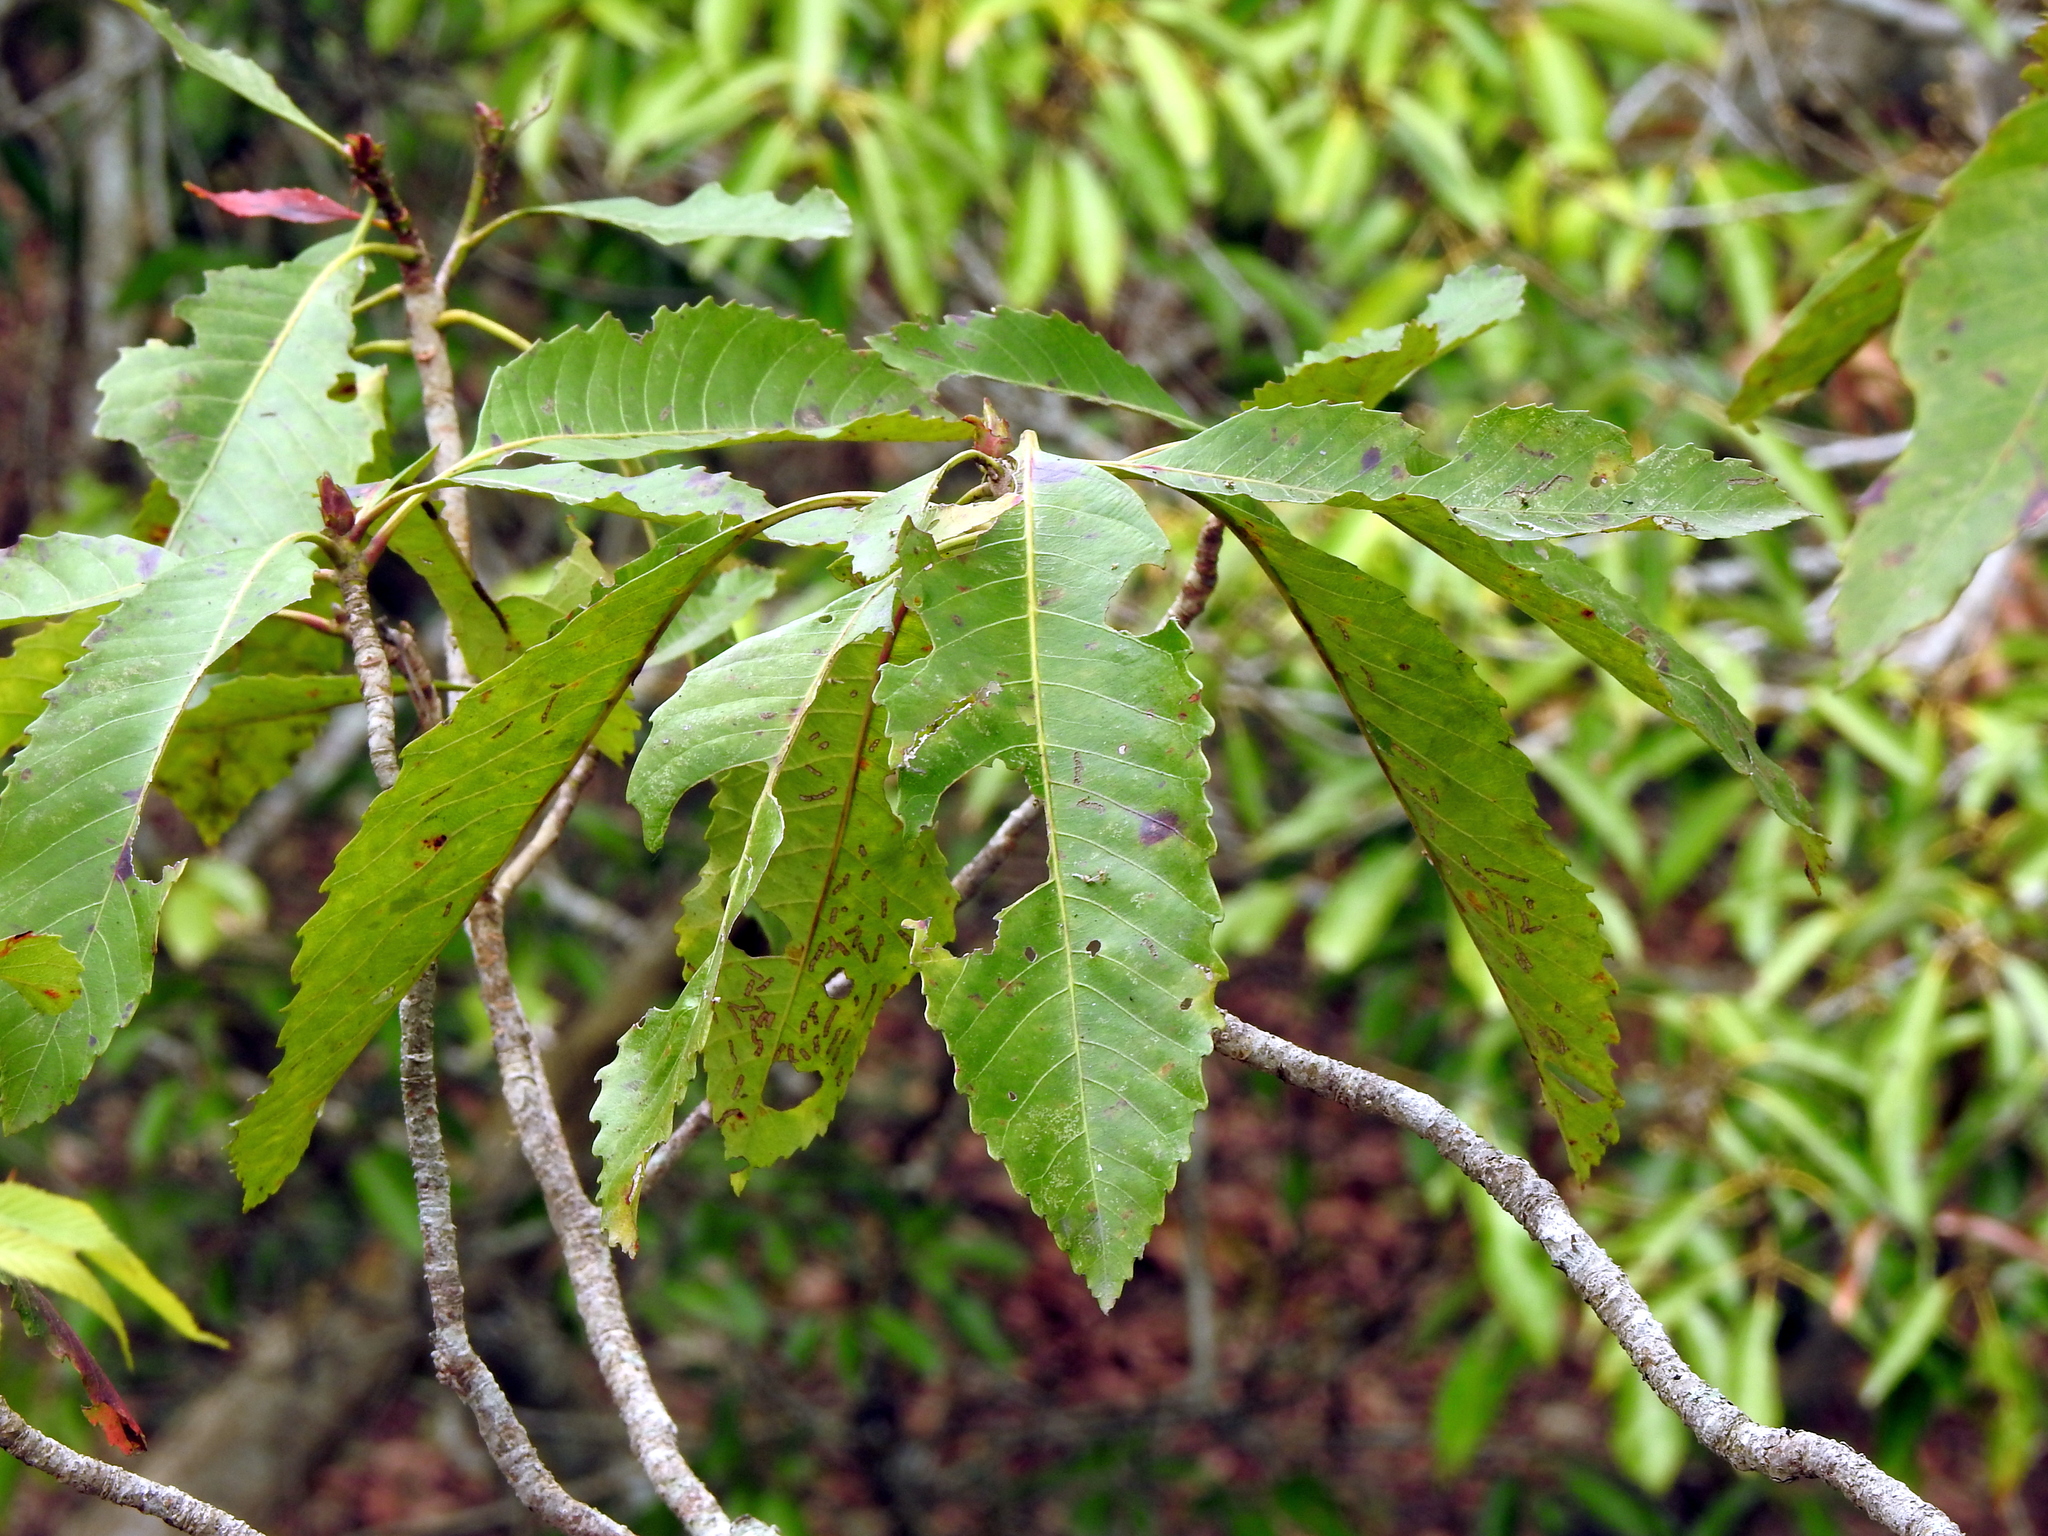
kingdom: Plantae
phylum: Tracheophyta
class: Magnoliopsida
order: Rosales
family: Rosaceae
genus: Rhaphiolepis
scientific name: Rhaphiolepis deflexa
